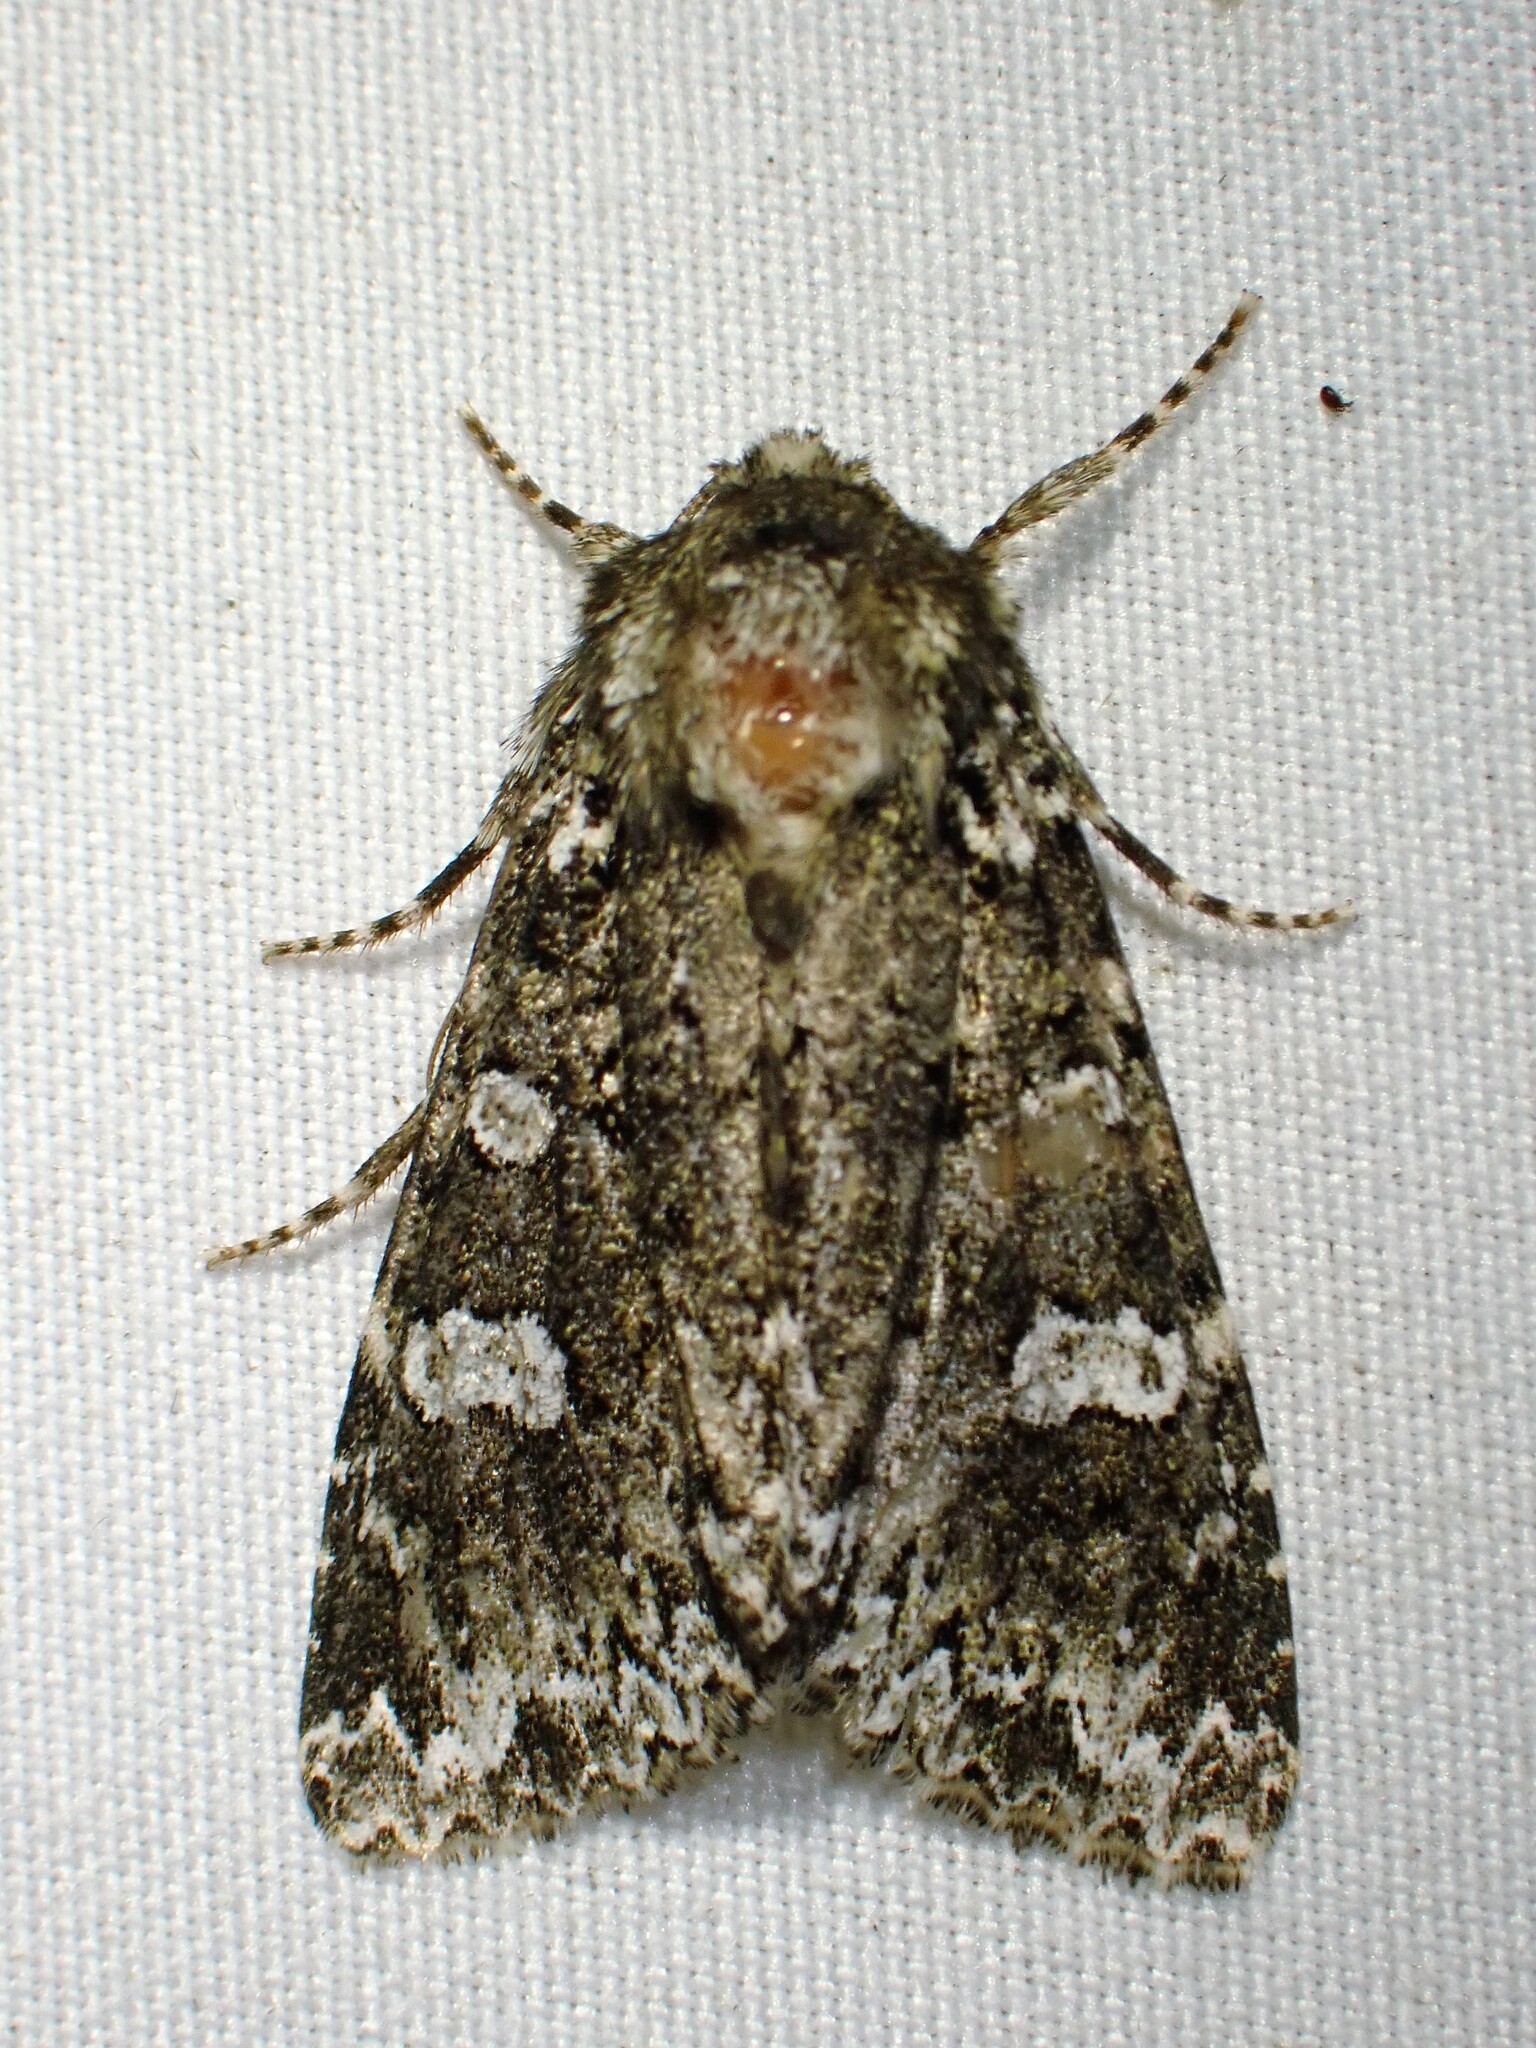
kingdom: Animalia
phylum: Arthropoda
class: Insecta
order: Lepidoptera
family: Noctuidae
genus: Melanchra
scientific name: Melanchra adjuncta
